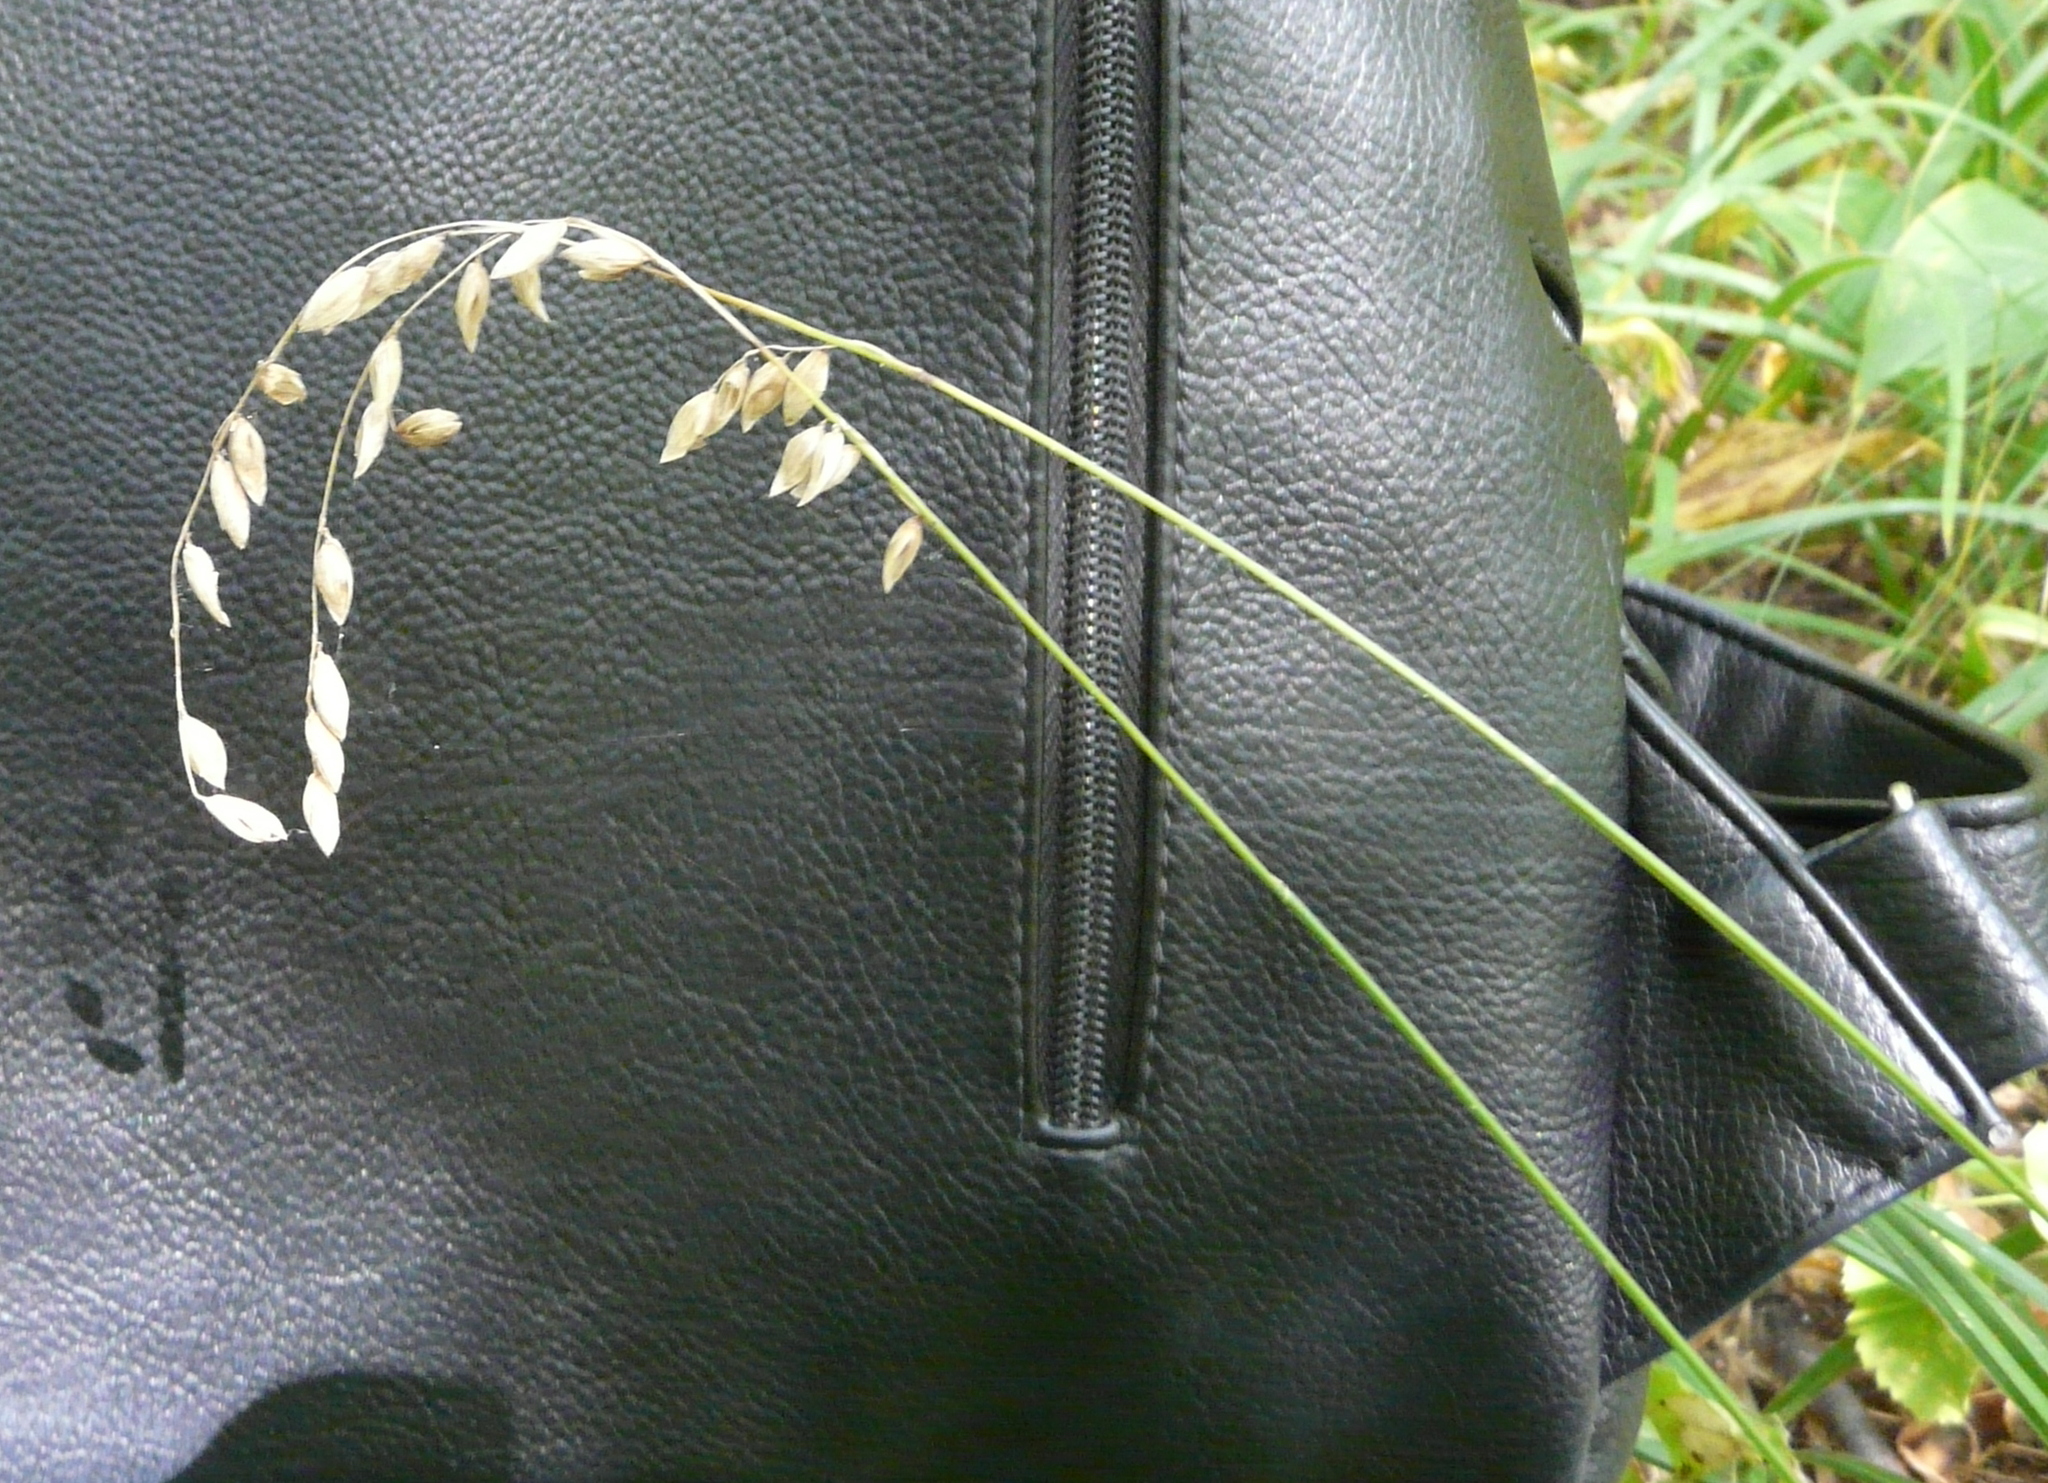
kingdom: Plantae
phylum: Tracheophyta
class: Liliopsida
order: Poales
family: Poaceae
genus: Melica
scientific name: Melica nutans
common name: Mountain melick
